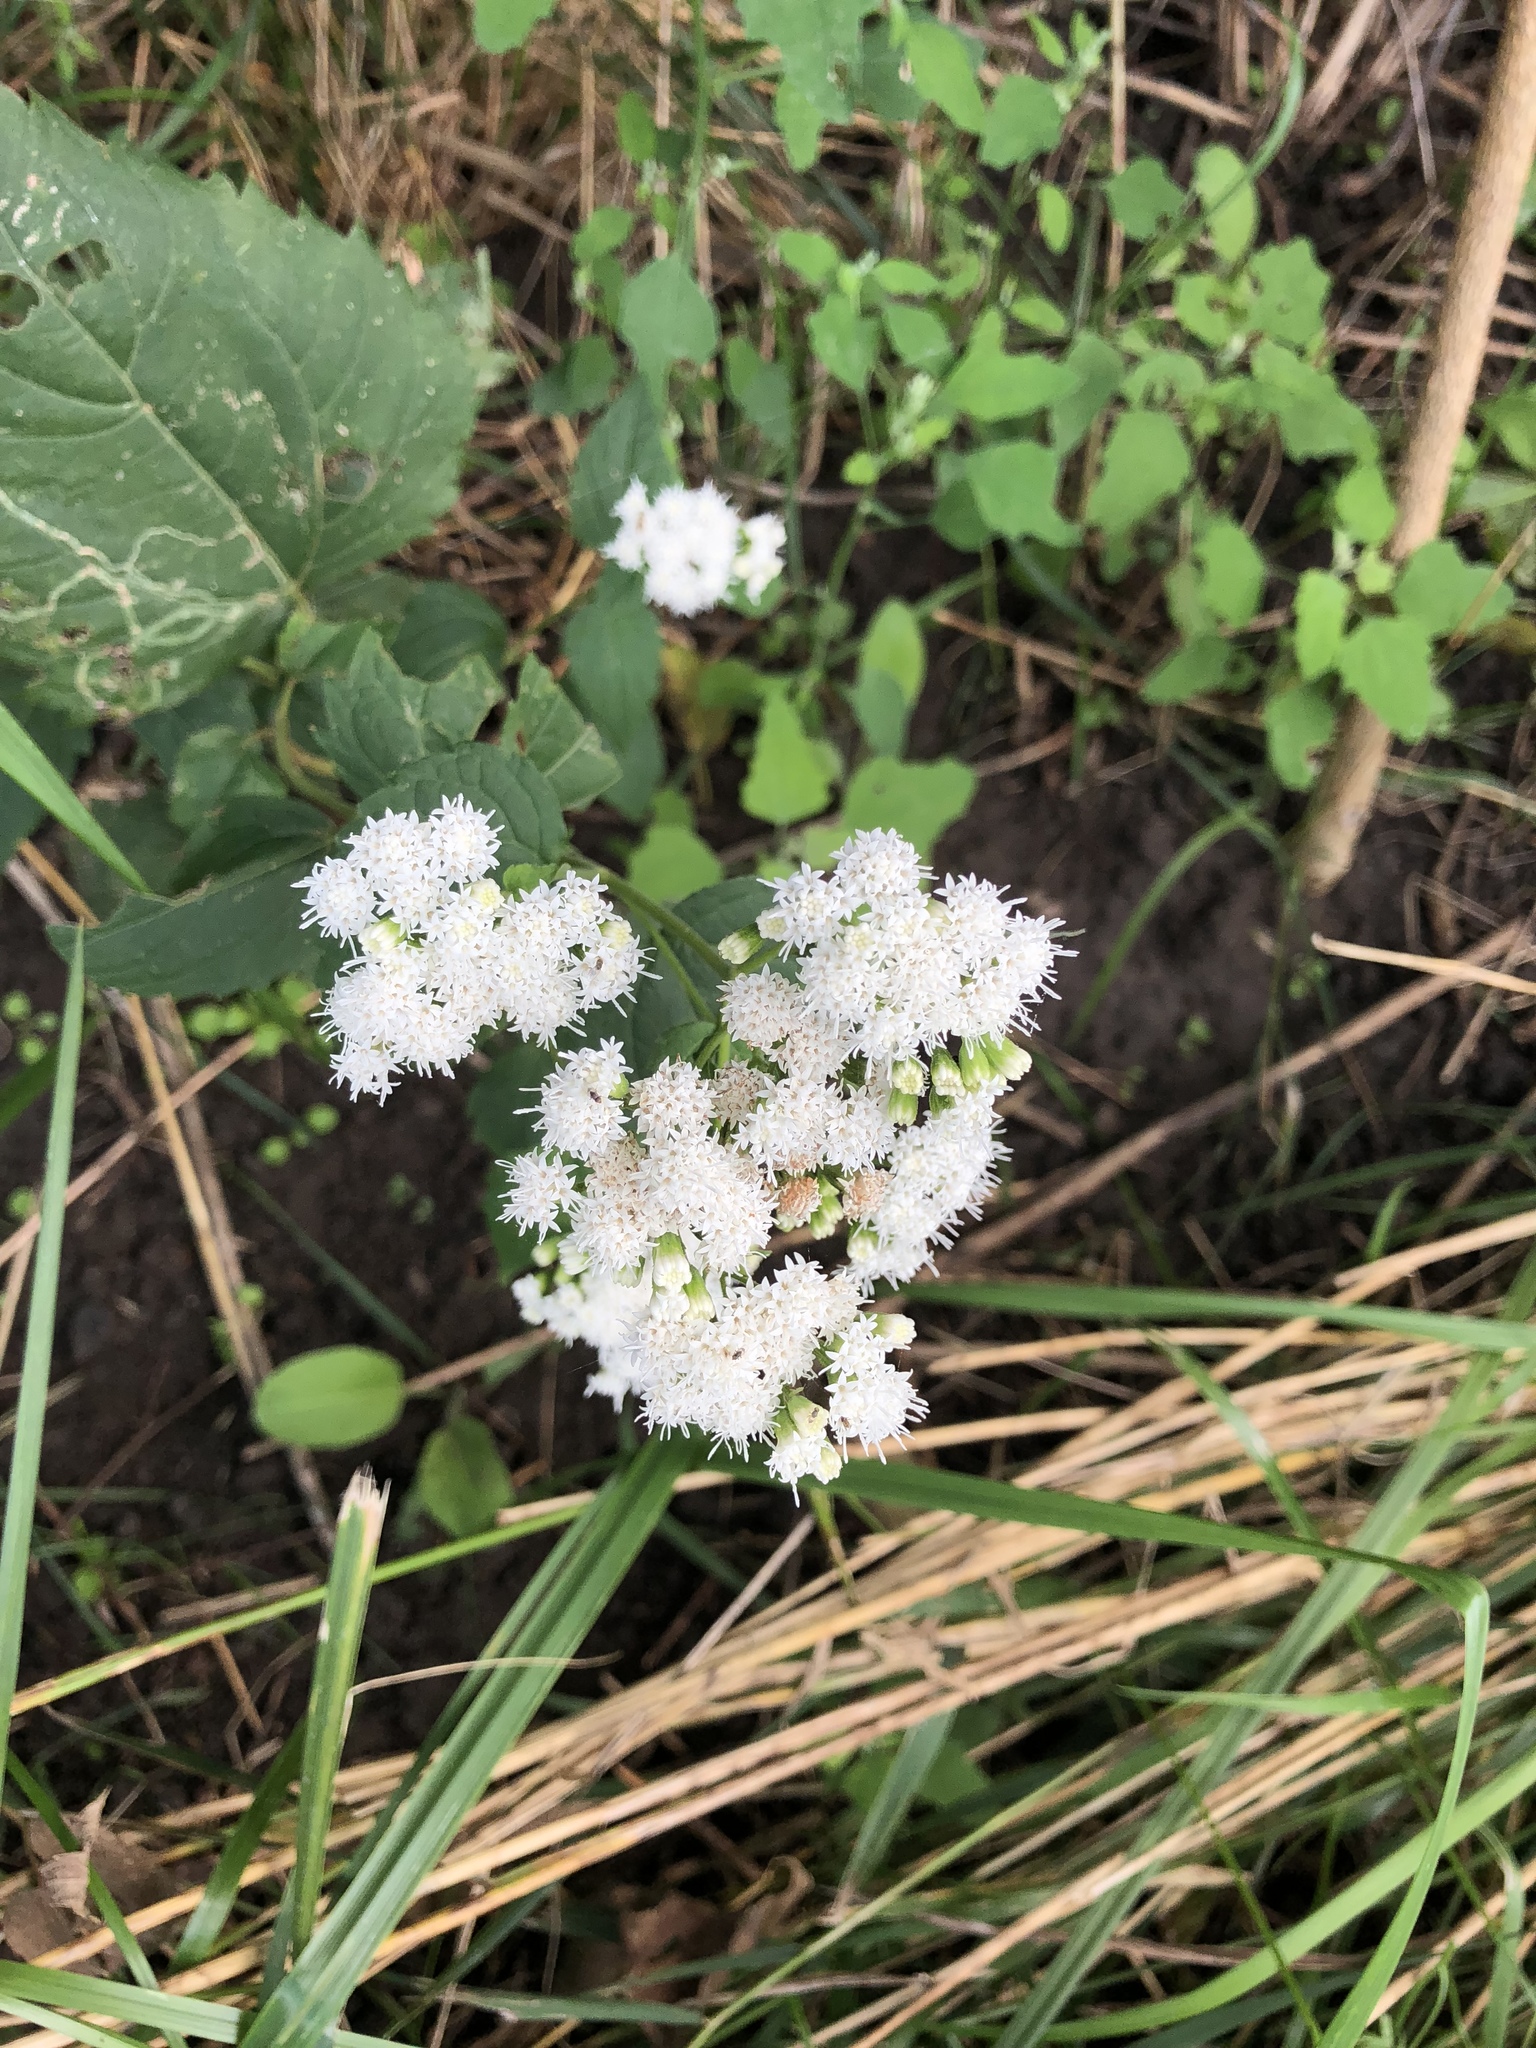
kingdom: Plantae
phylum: Tracheophyta
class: Magnoliopsida
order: Asterales
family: Asteraceae
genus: Ageratina
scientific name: Ageratina altissima
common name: White snakeroot
